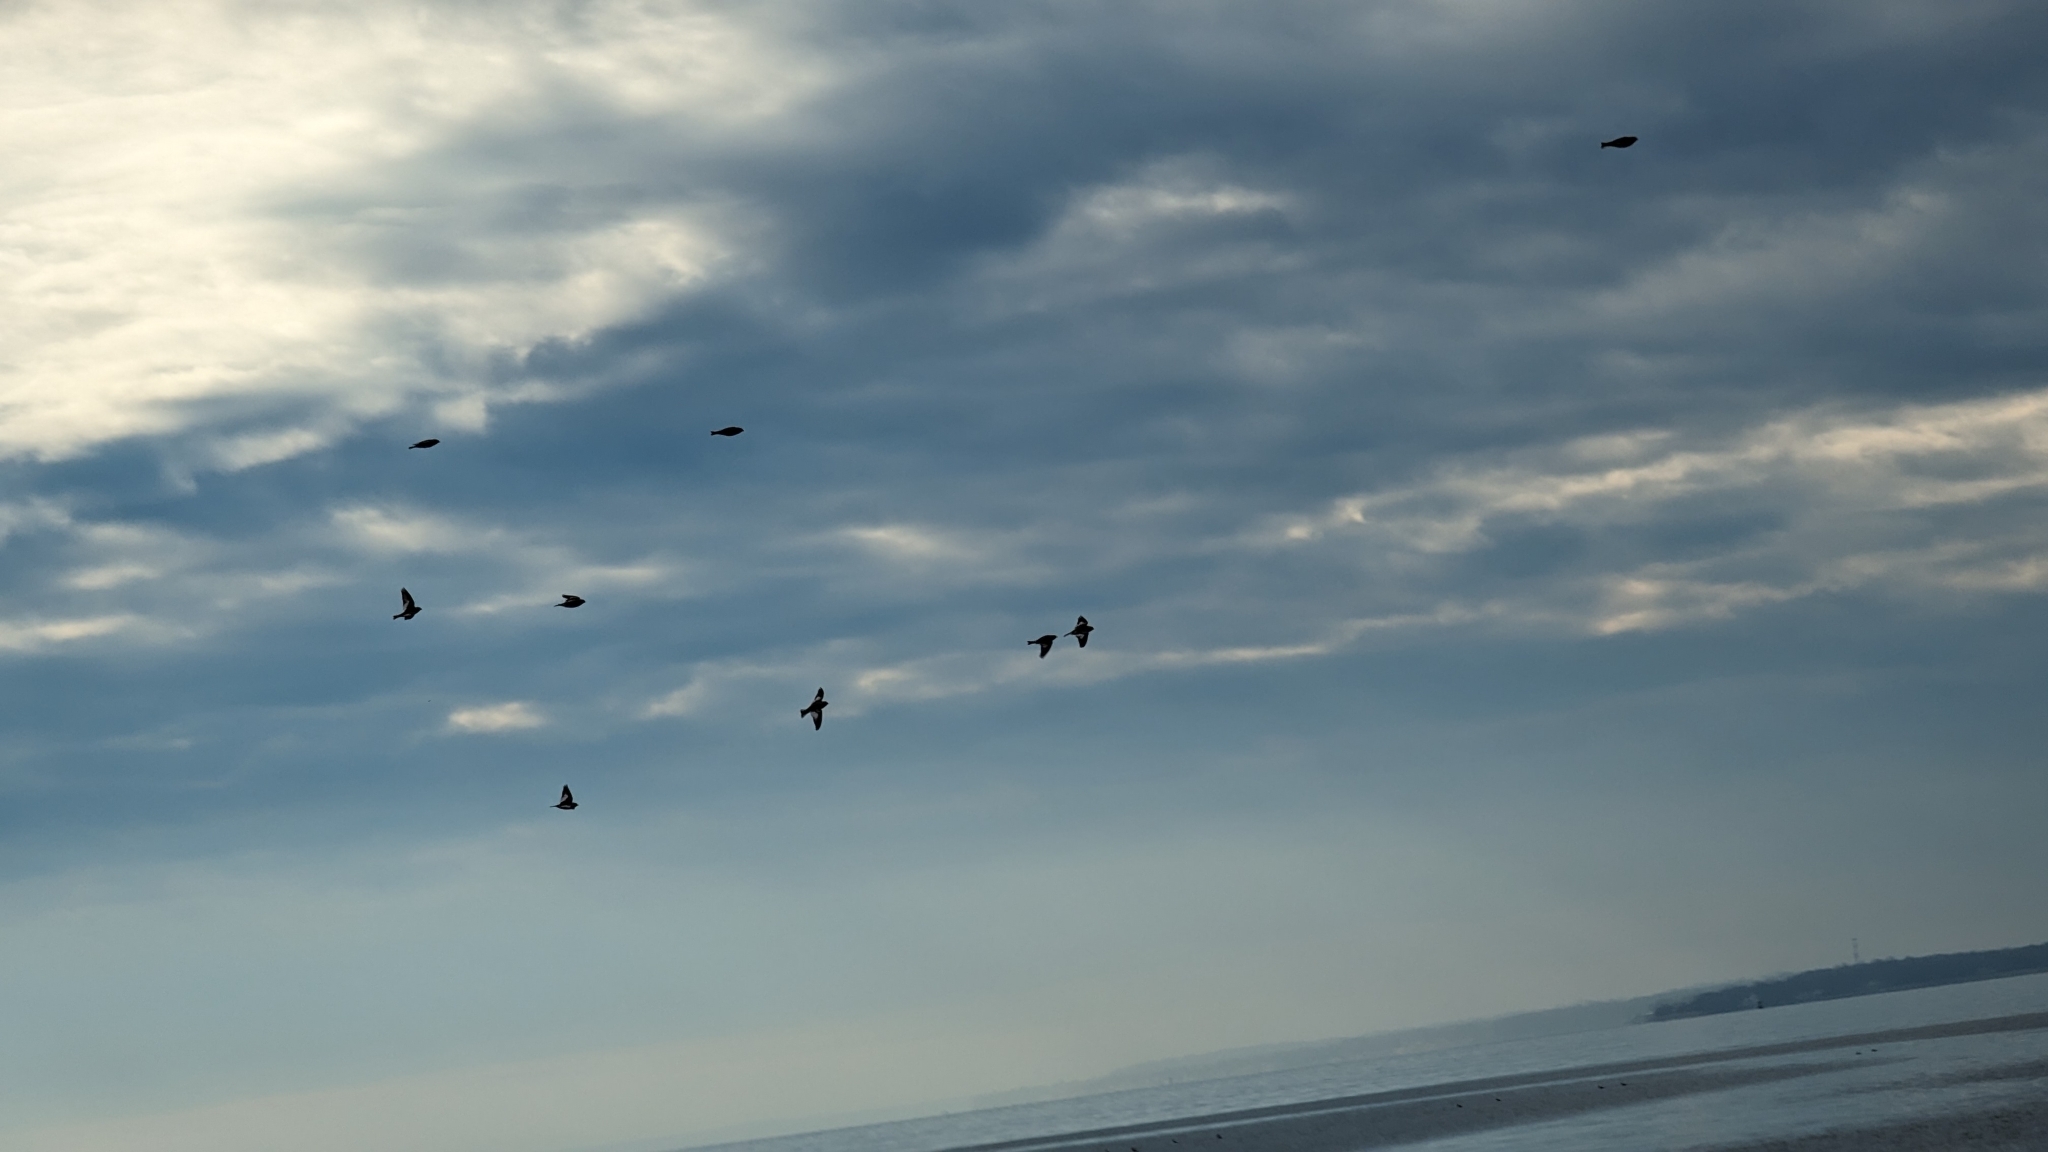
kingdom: Animalia
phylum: Chordata
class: Aves
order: Passeriformes
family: Calcariidae
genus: Plectrophenax
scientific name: Plectrophenax nivalis
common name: Snow bunting
